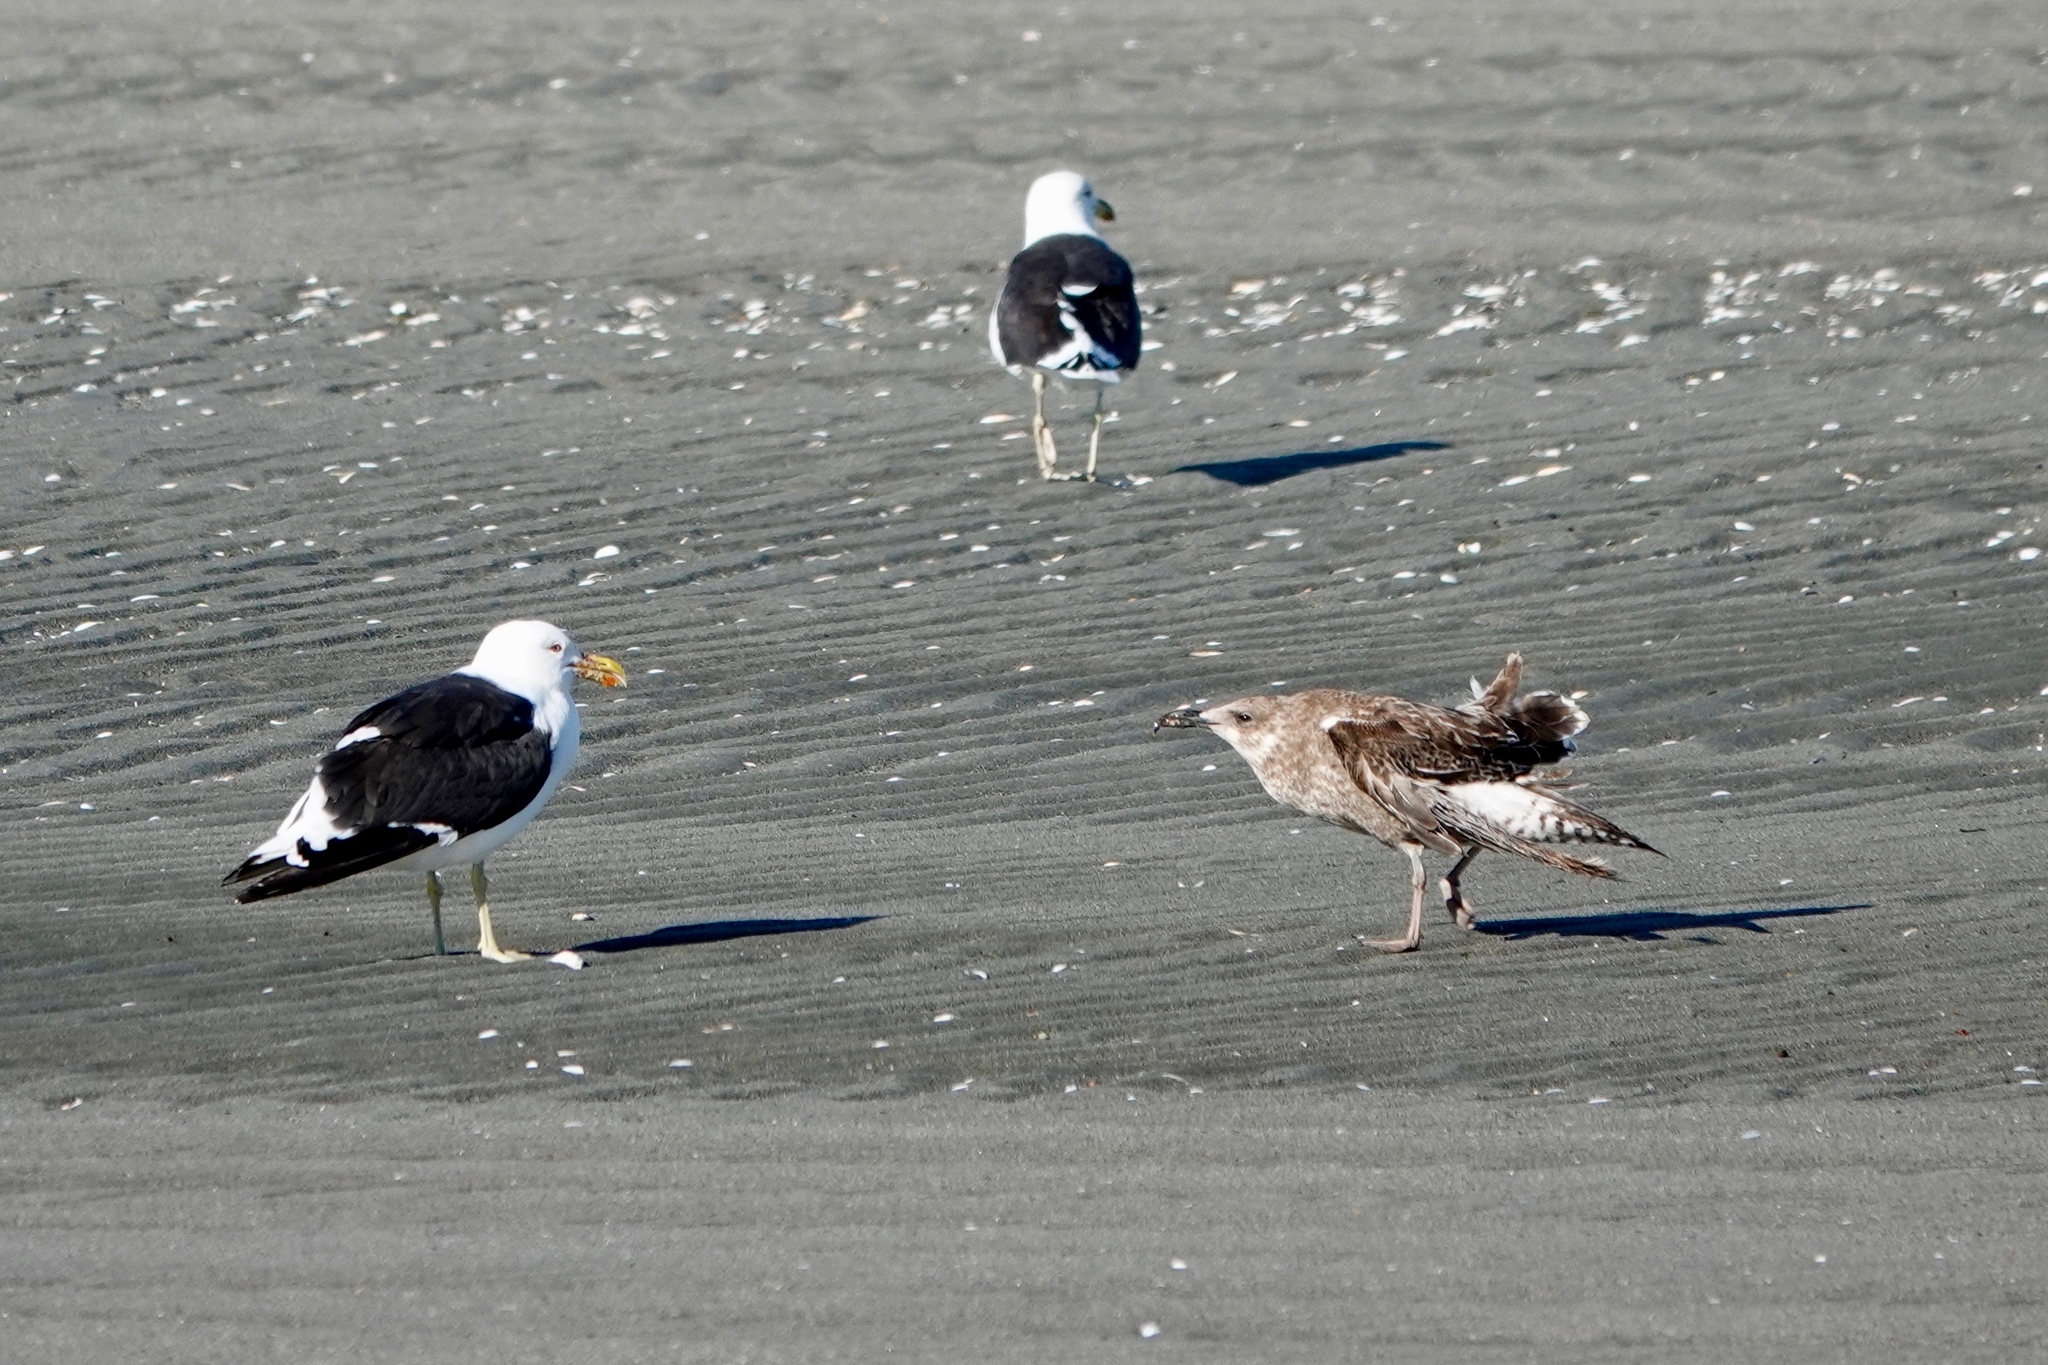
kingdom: Animalia
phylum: Chordata
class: Aves
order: Charadriiformes
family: Laridae
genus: Larus
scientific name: Larus dominicanus
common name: Kelp gull
